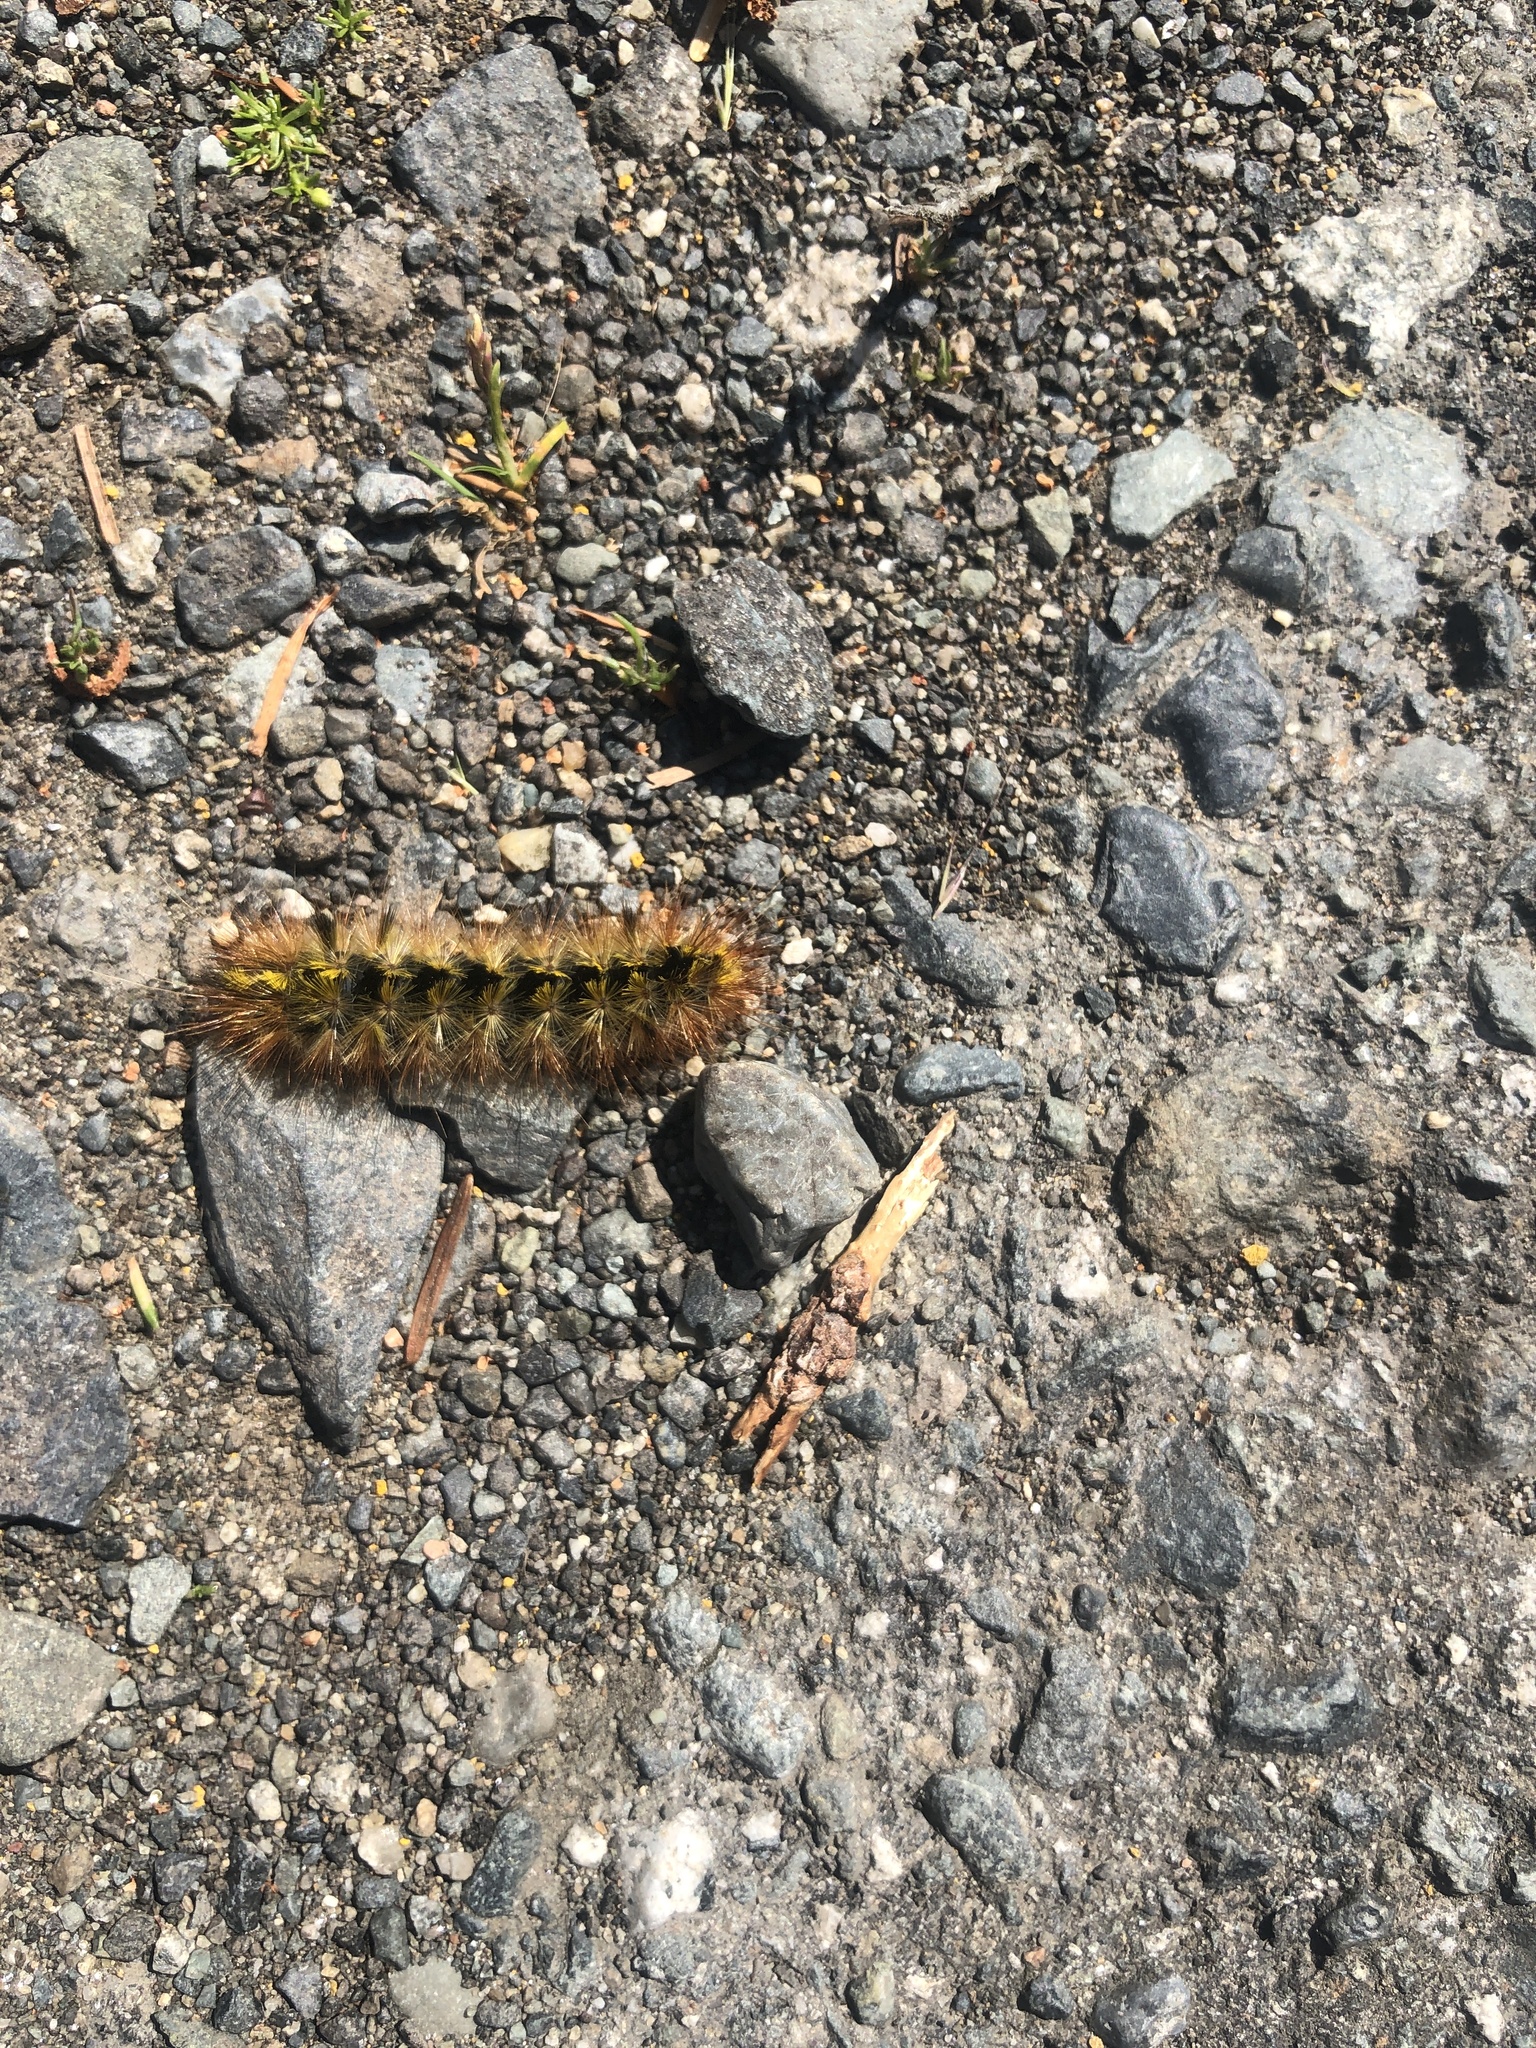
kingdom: Animalia
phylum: Arthropoda
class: Insecta
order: Lepidoptera
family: Erebidae
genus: Lophocampa
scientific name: Lophocampa argentata
